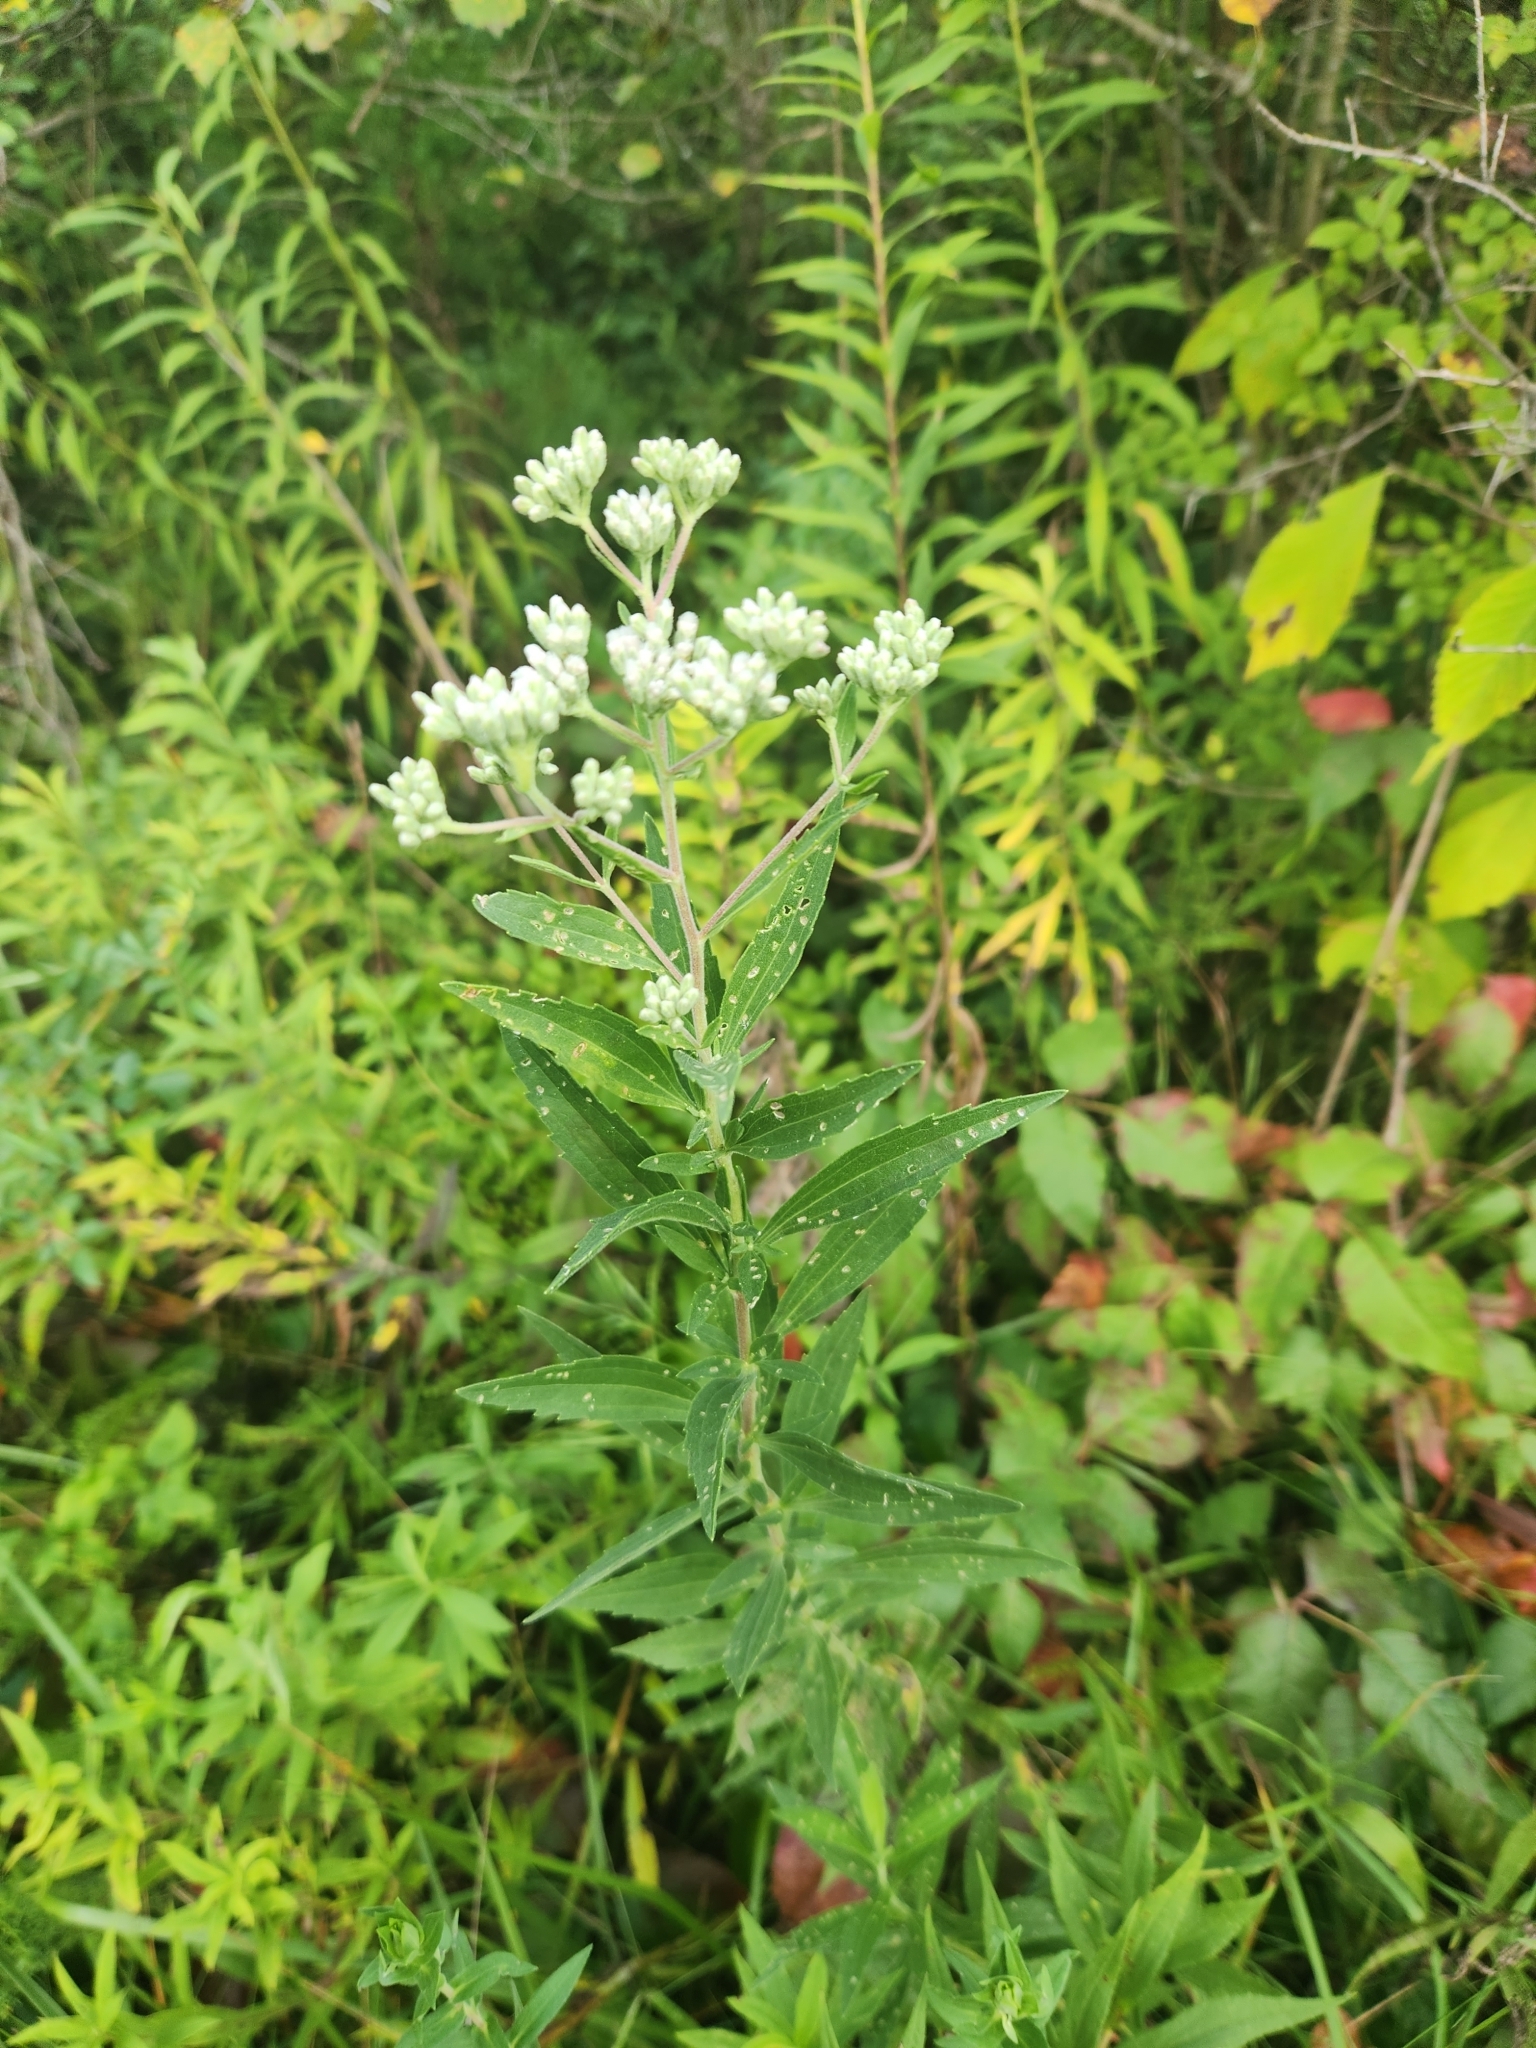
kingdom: Plantae
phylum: Tracheophyta
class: Magnoliopsida
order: Asterales
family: Asteraceae
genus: Eupatorium
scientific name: Eupatorium altissimum
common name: Tall thoroughwort
